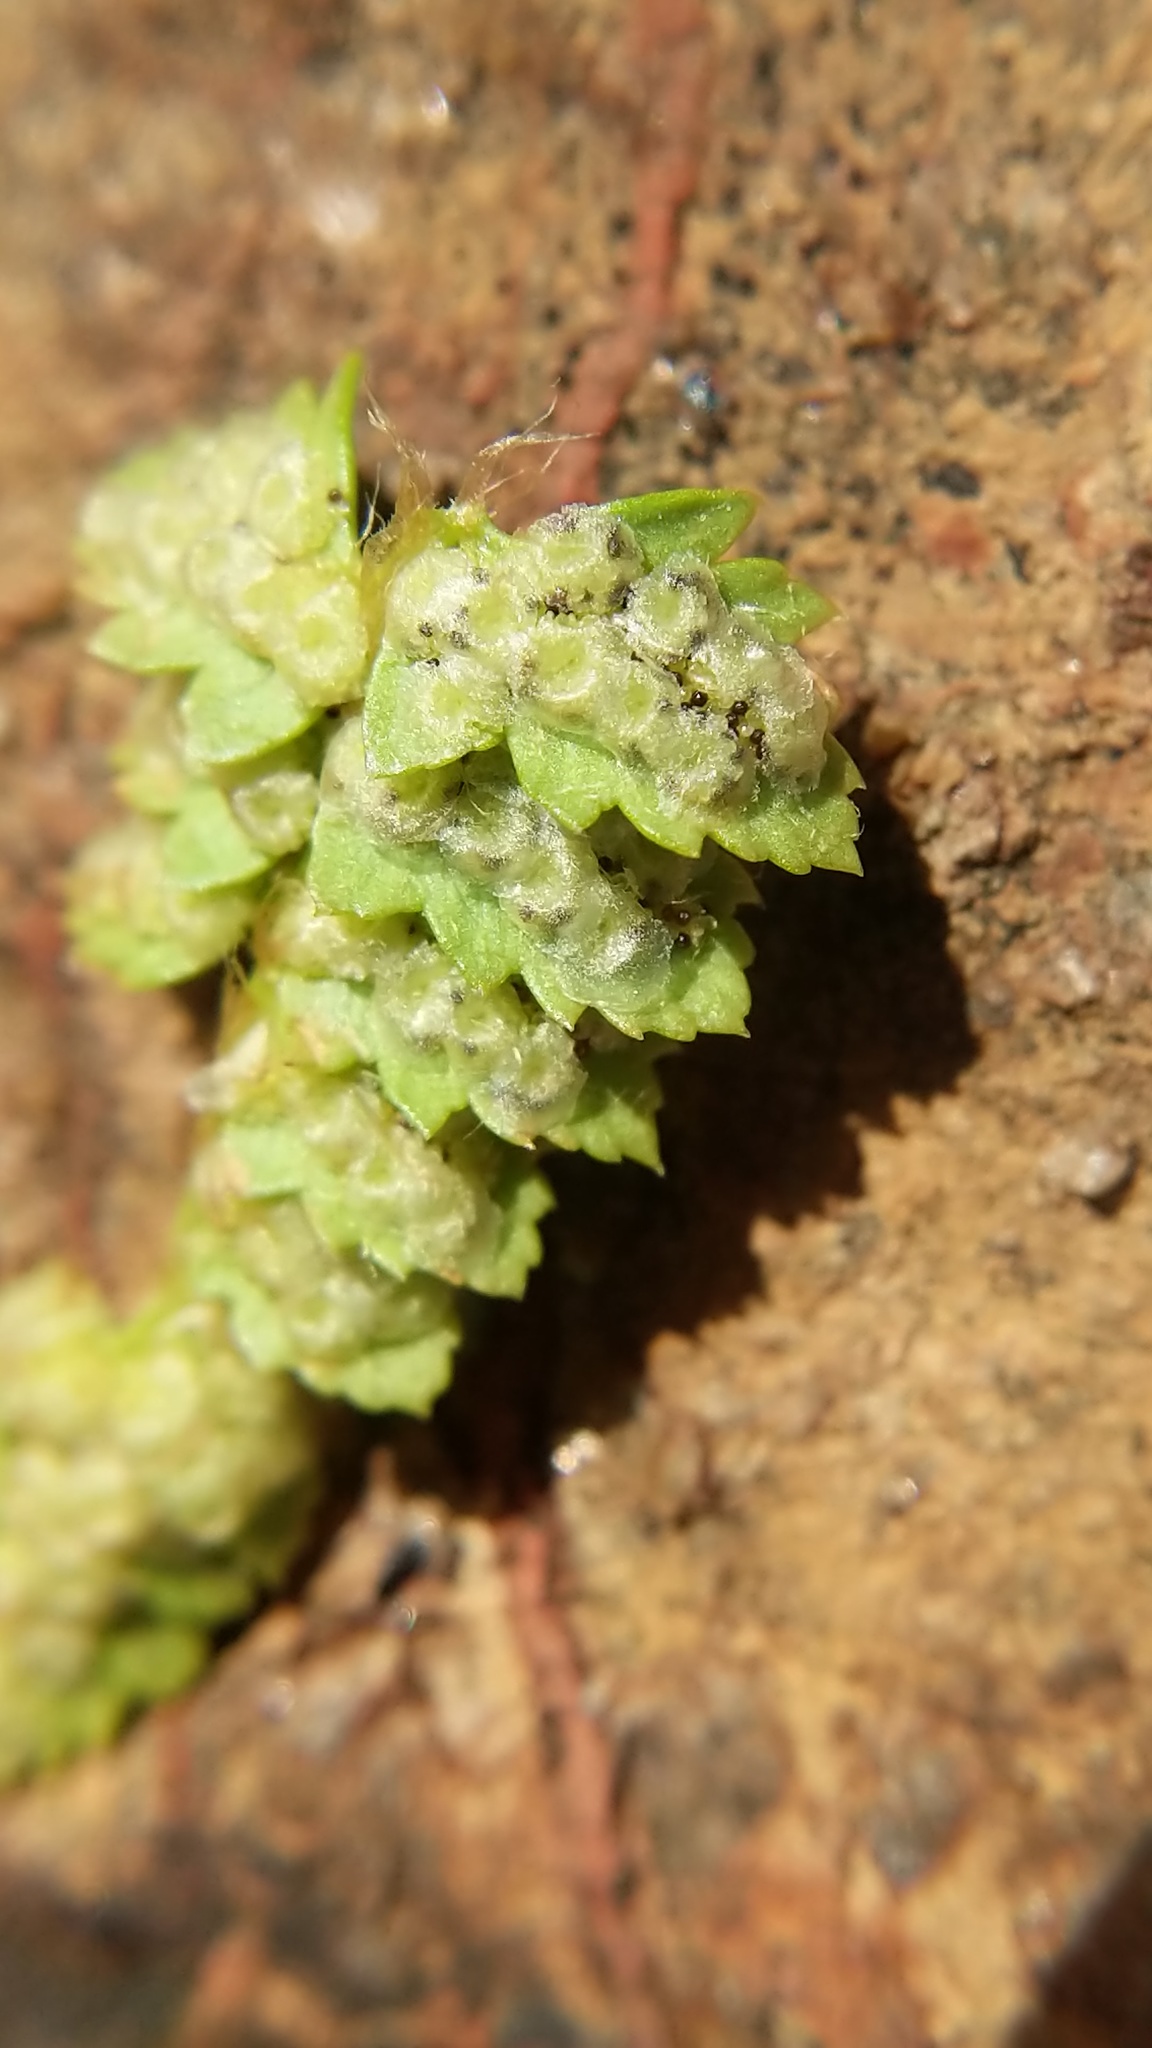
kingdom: Plantae
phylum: Tracheophyta
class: Polypodiopsida
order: Polypodiales
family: Dryopteridaceae
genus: Polystichum
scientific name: Polystichum kruckebergii
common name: Kruckeberg's holly fern
